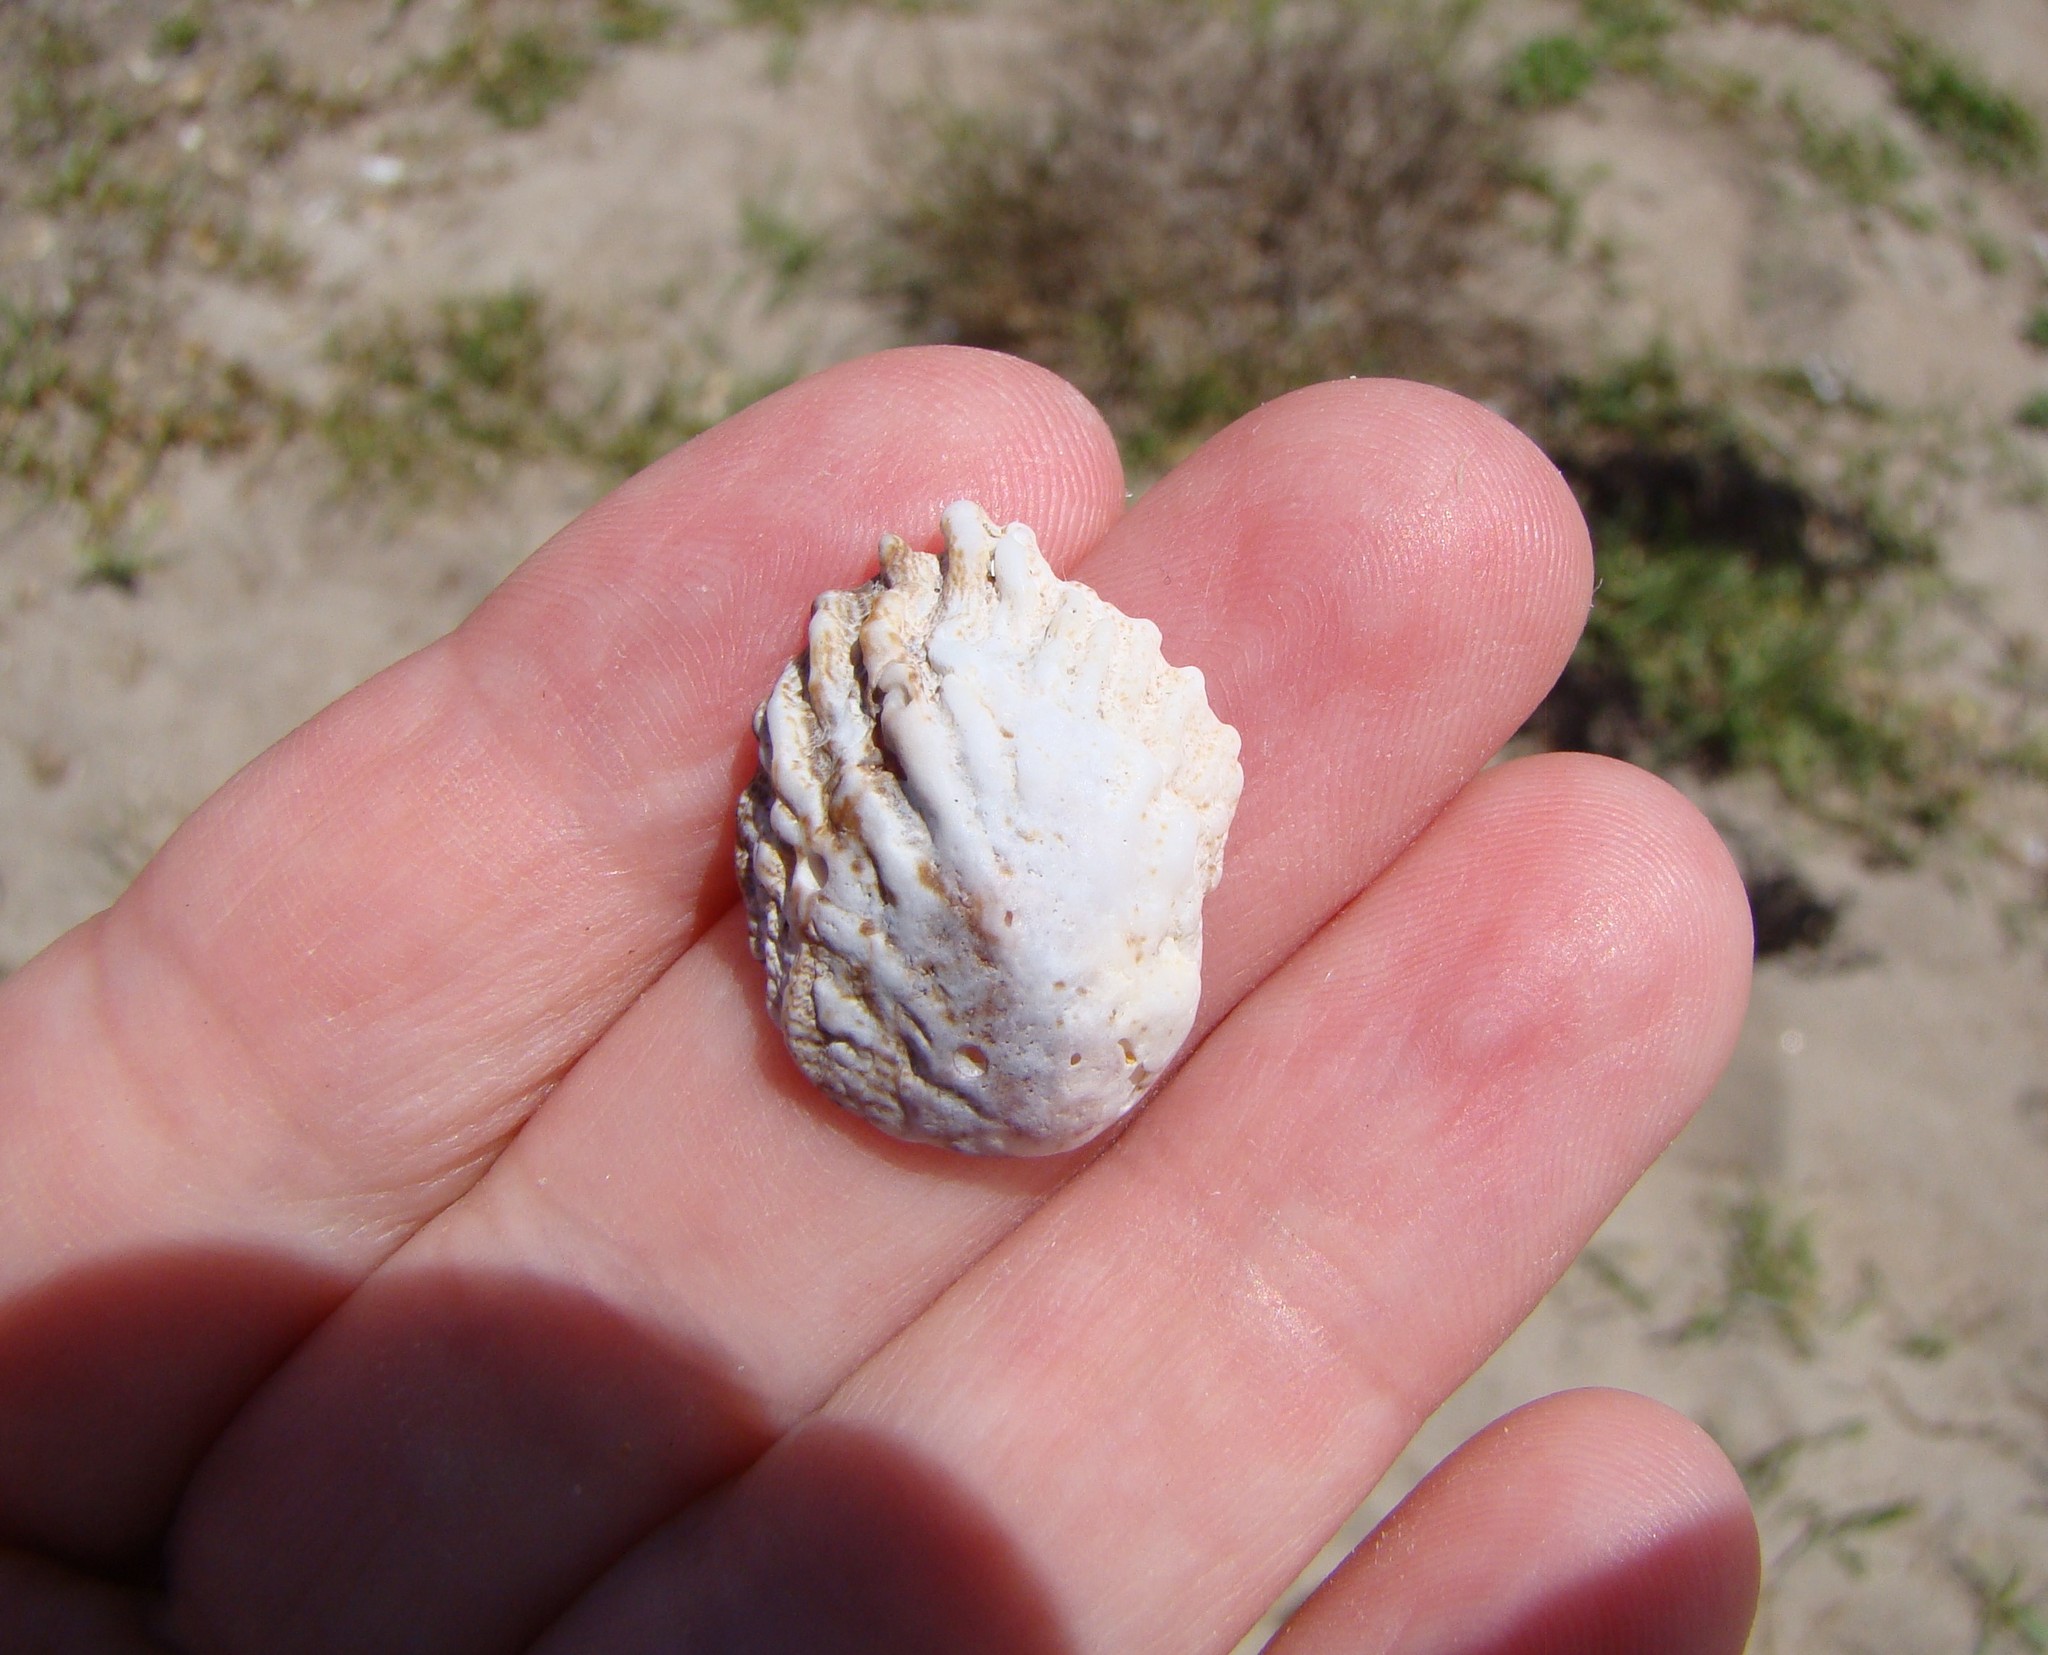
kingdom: Animalia
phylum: Mollusca
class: Gastropoda
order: Littorinimorpha
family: Calyptraeidae
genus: Maoricrypta
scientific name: Maoricrypta costata
